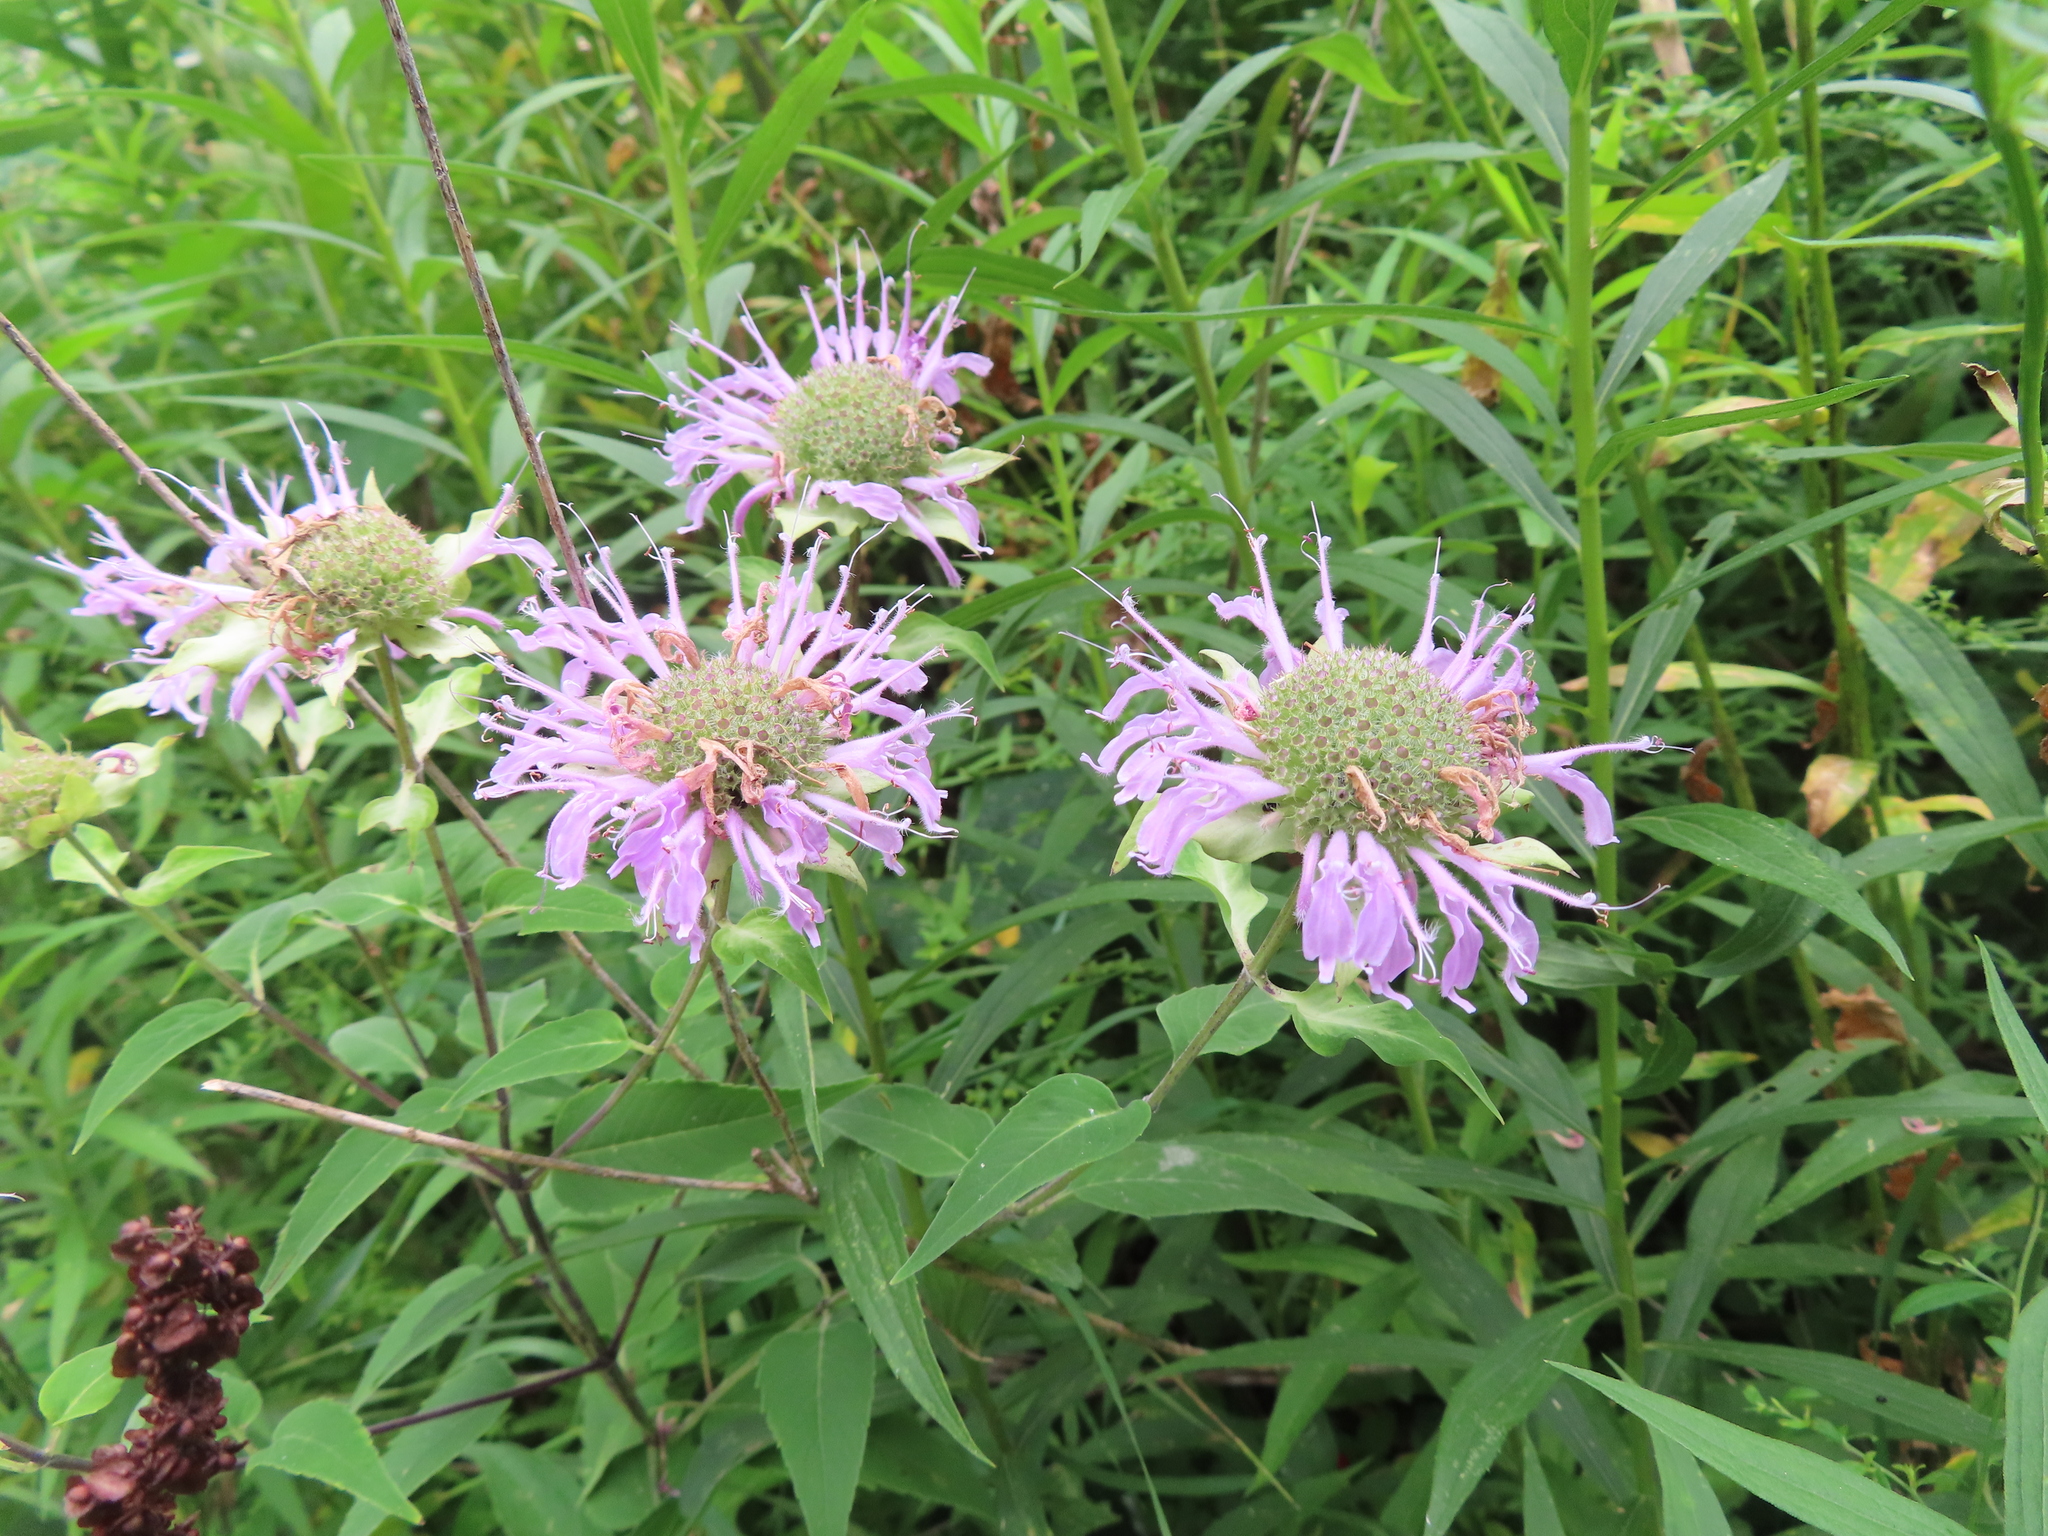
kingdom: Plantae
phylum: Tracheophyta
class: Magnoliopsida
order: Lamiales
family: Lamiaceae
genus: Monarda
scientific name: Monarda fistulosa
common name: Purple beebalm
